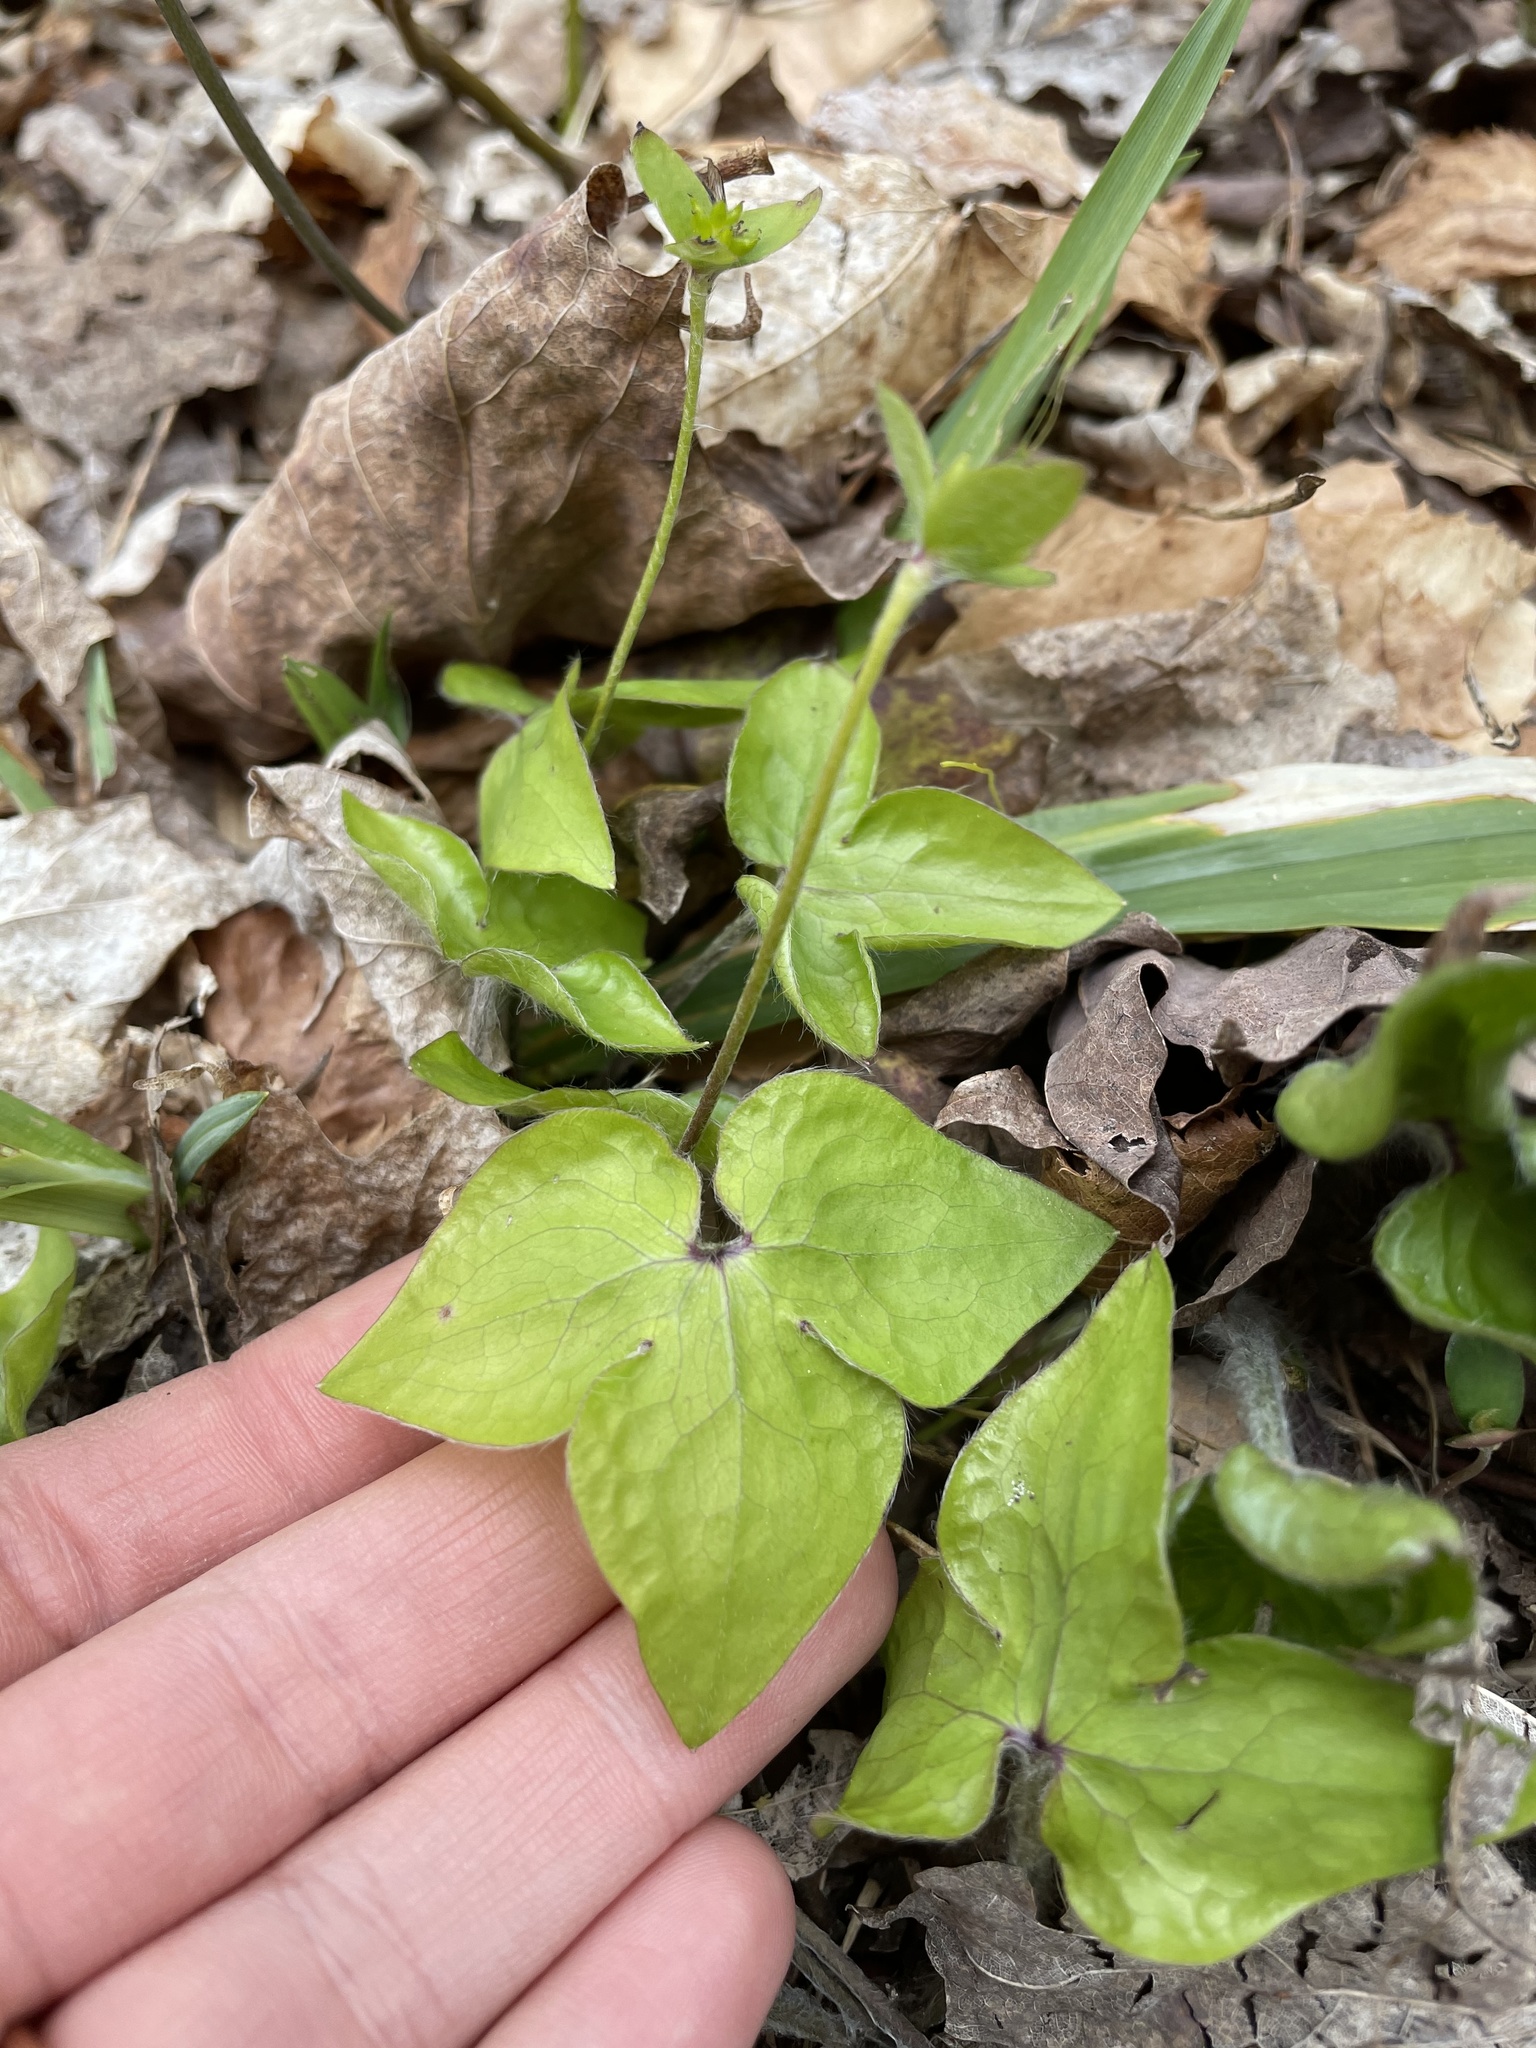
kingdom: Plantae
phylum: Tracheophyta
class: Magnoliopsida
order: Ranunculales
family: Ranunculaceae
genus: Hepatica
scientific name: Hepatica acutiloba
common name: Sharp-lobed hepatica
